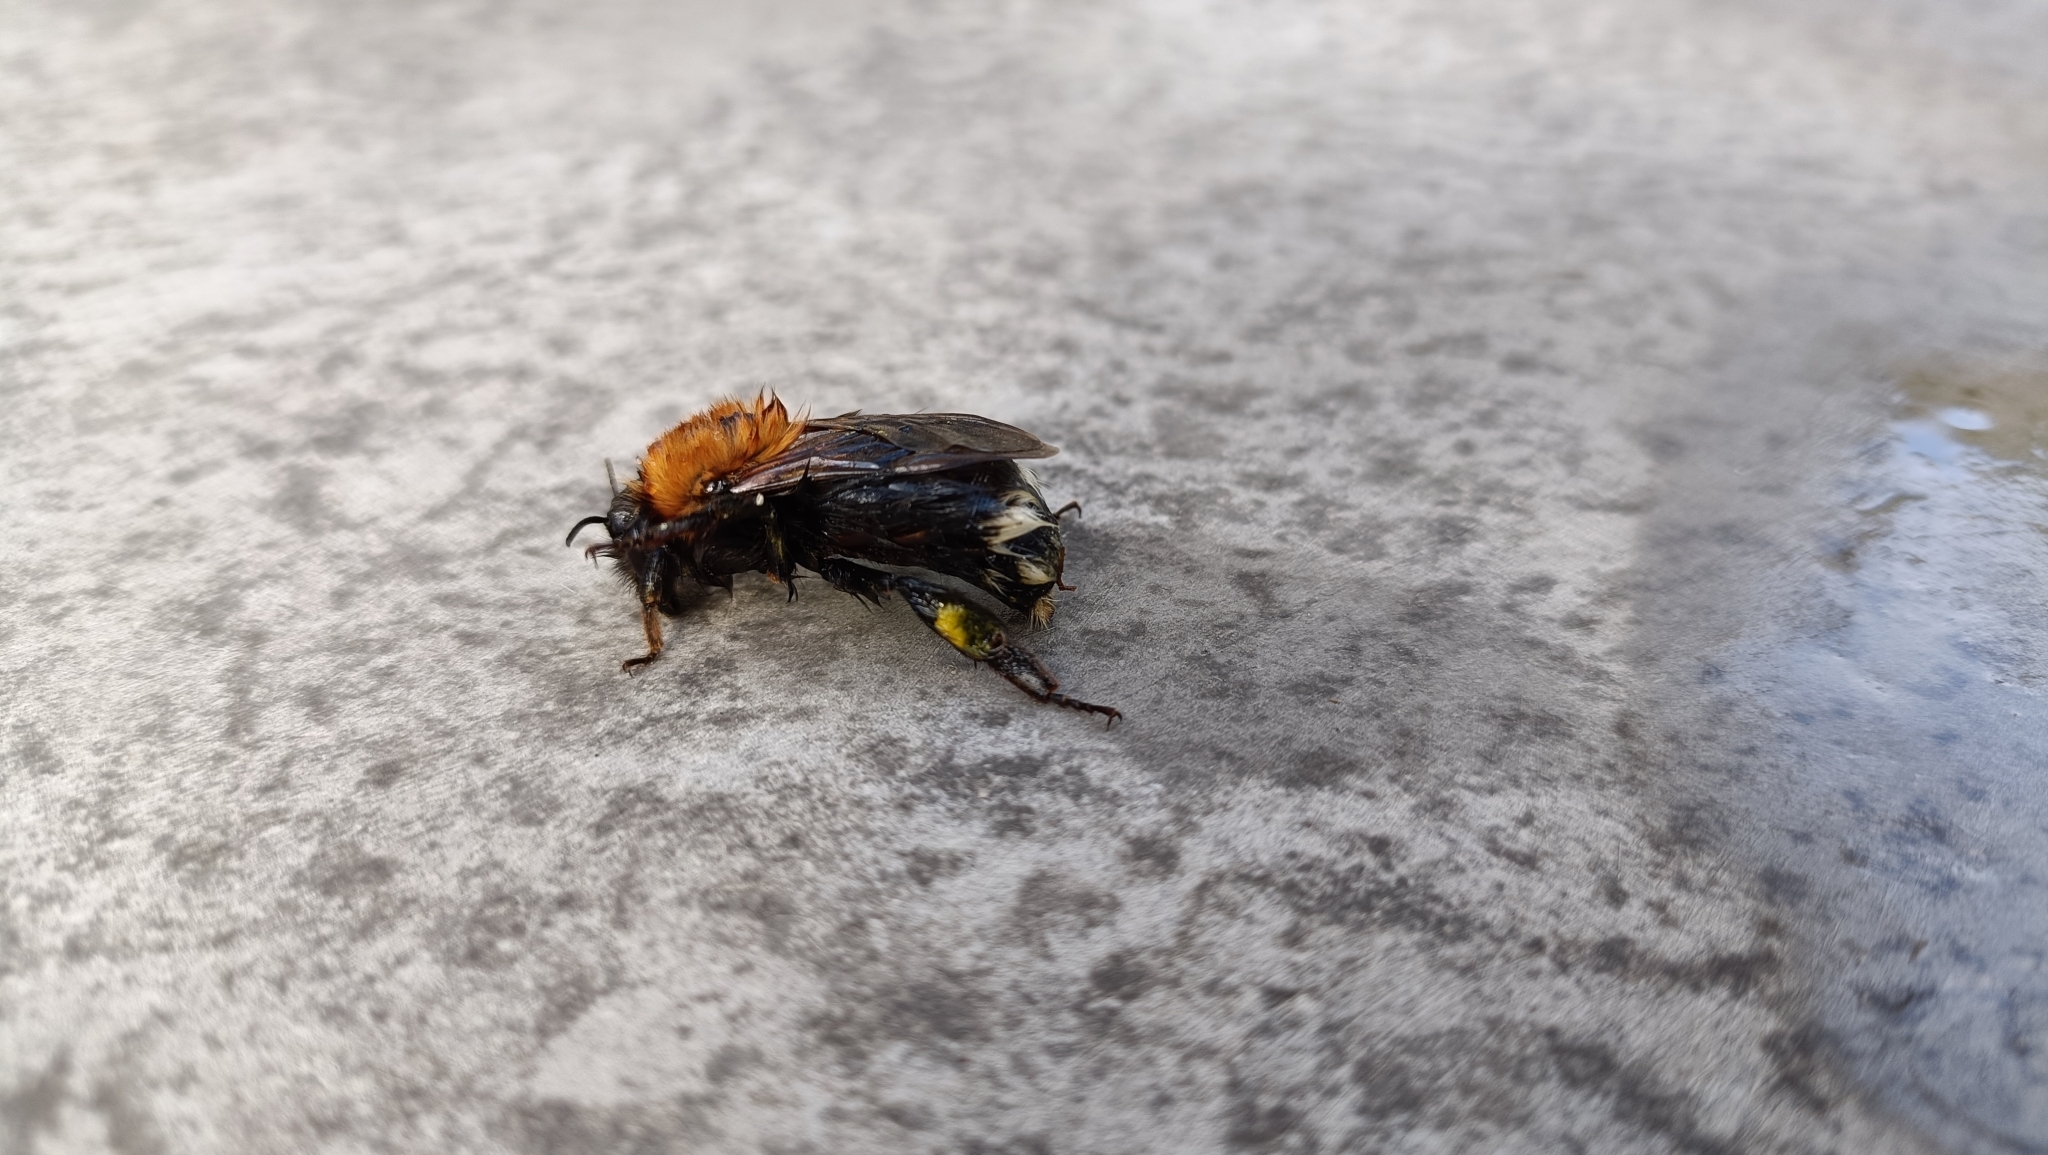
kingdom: Animalia
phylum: Arthropoda
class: Insecta
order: Hymenoptera
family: Apidae
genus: Bombus
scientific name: Bombus hypnorum
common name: New garden bumblebee
